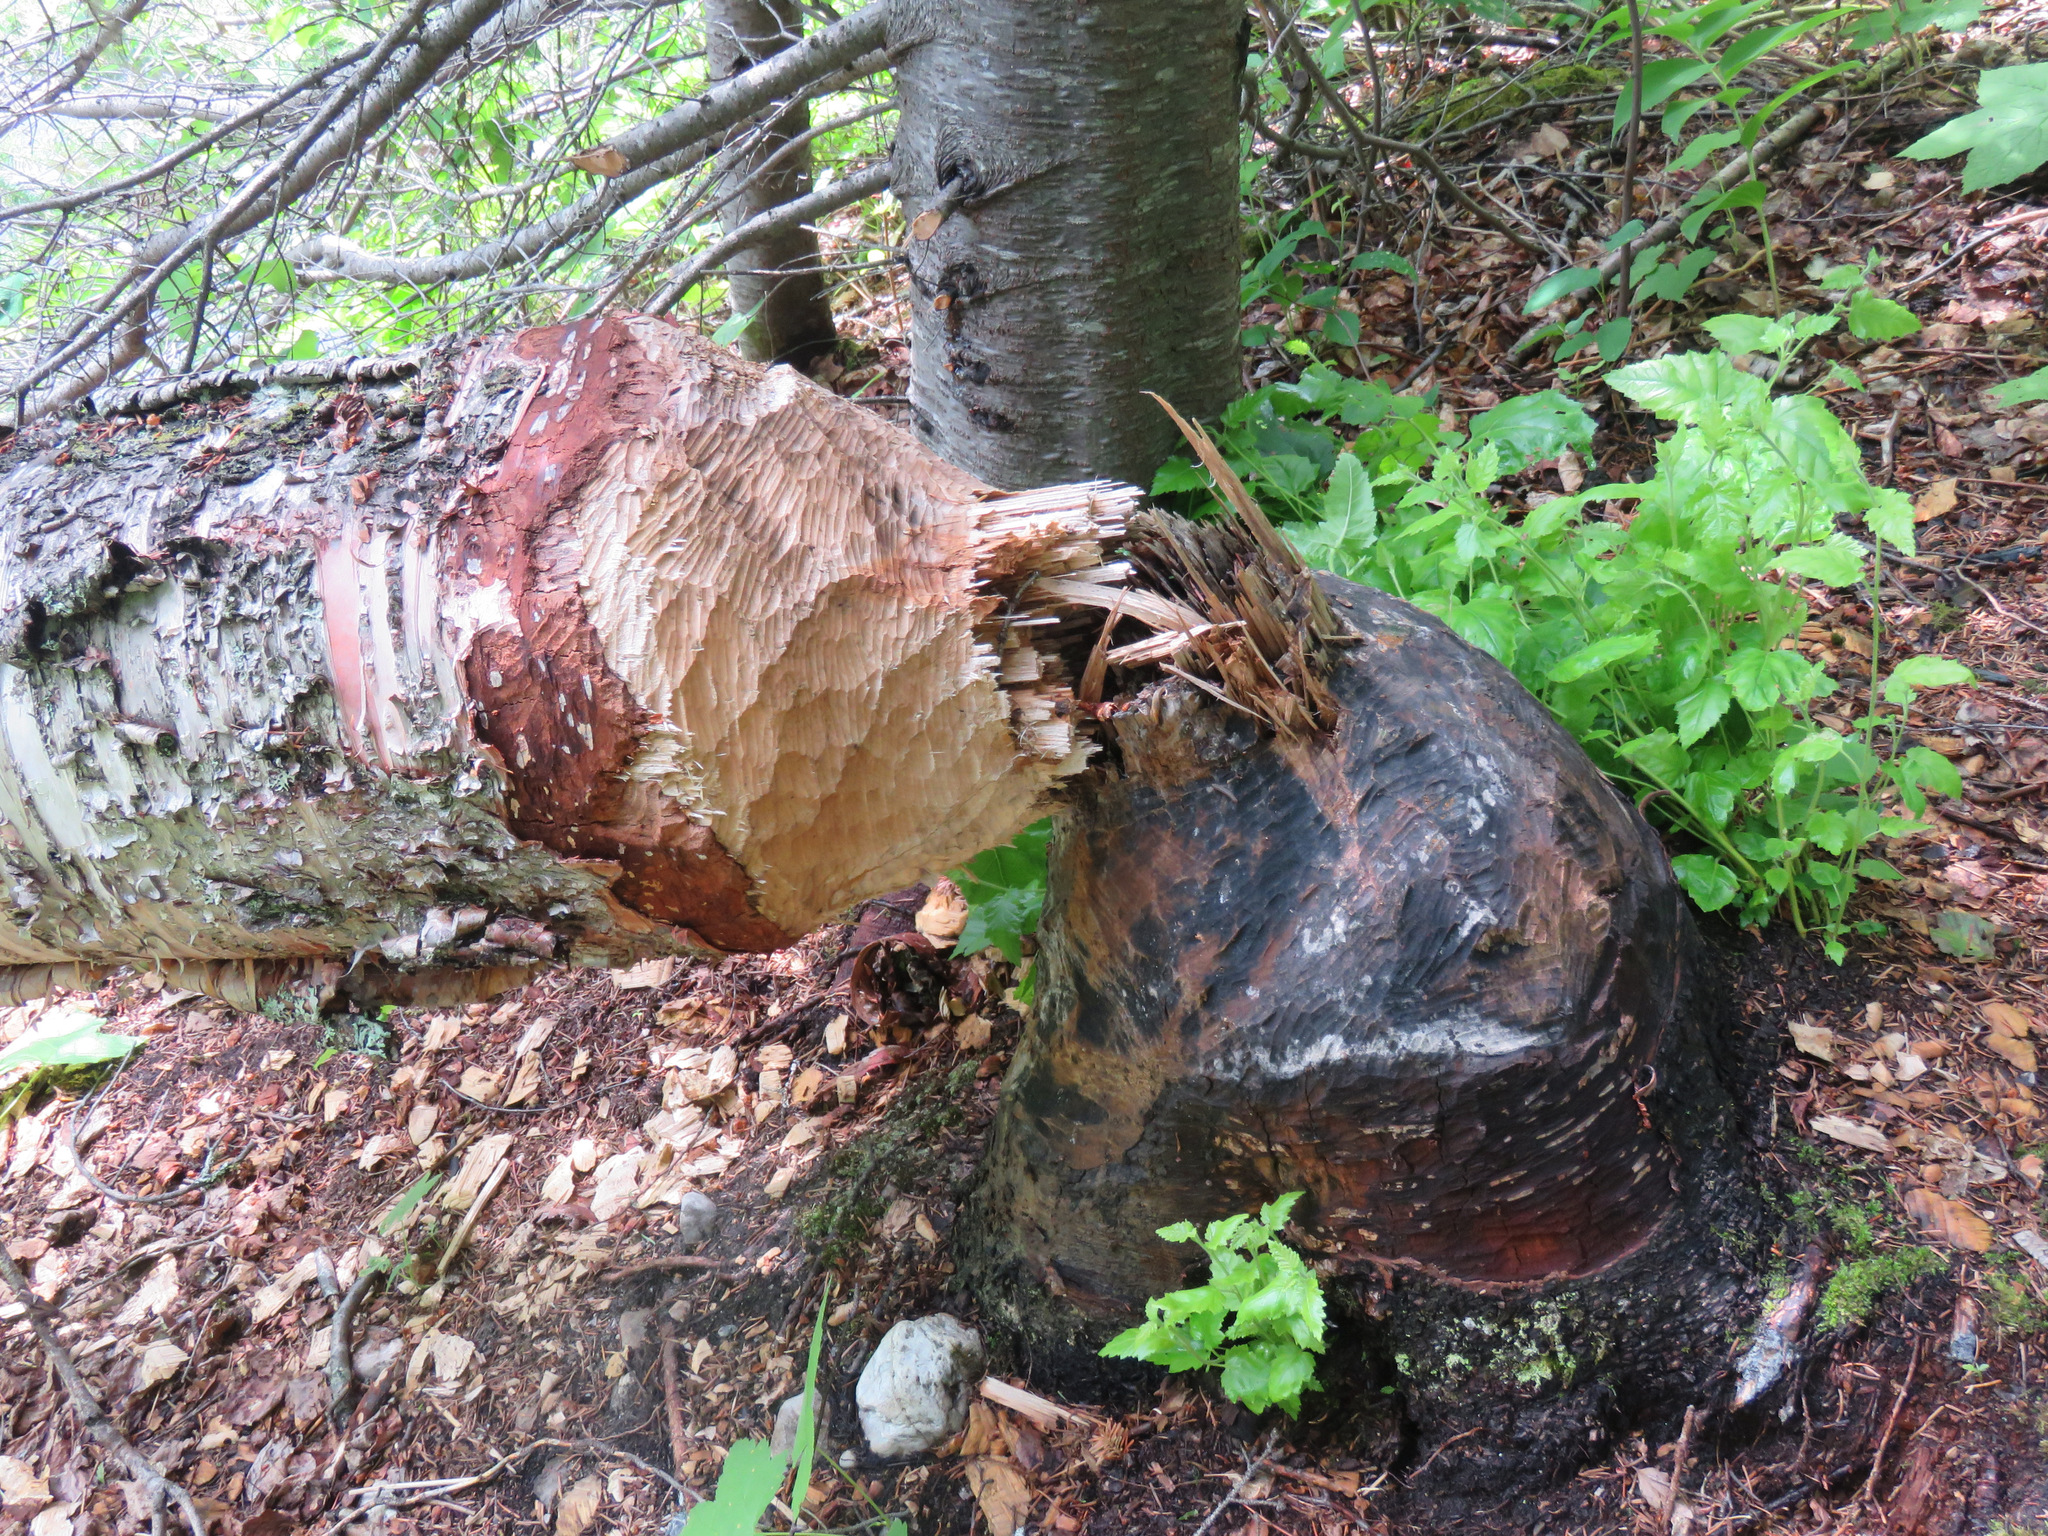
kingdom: Animalia
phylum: Chordata
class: Mammalia
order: Rodentia
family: Castoridae
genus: Castor
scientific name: Castor canadensis
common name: American beaver
